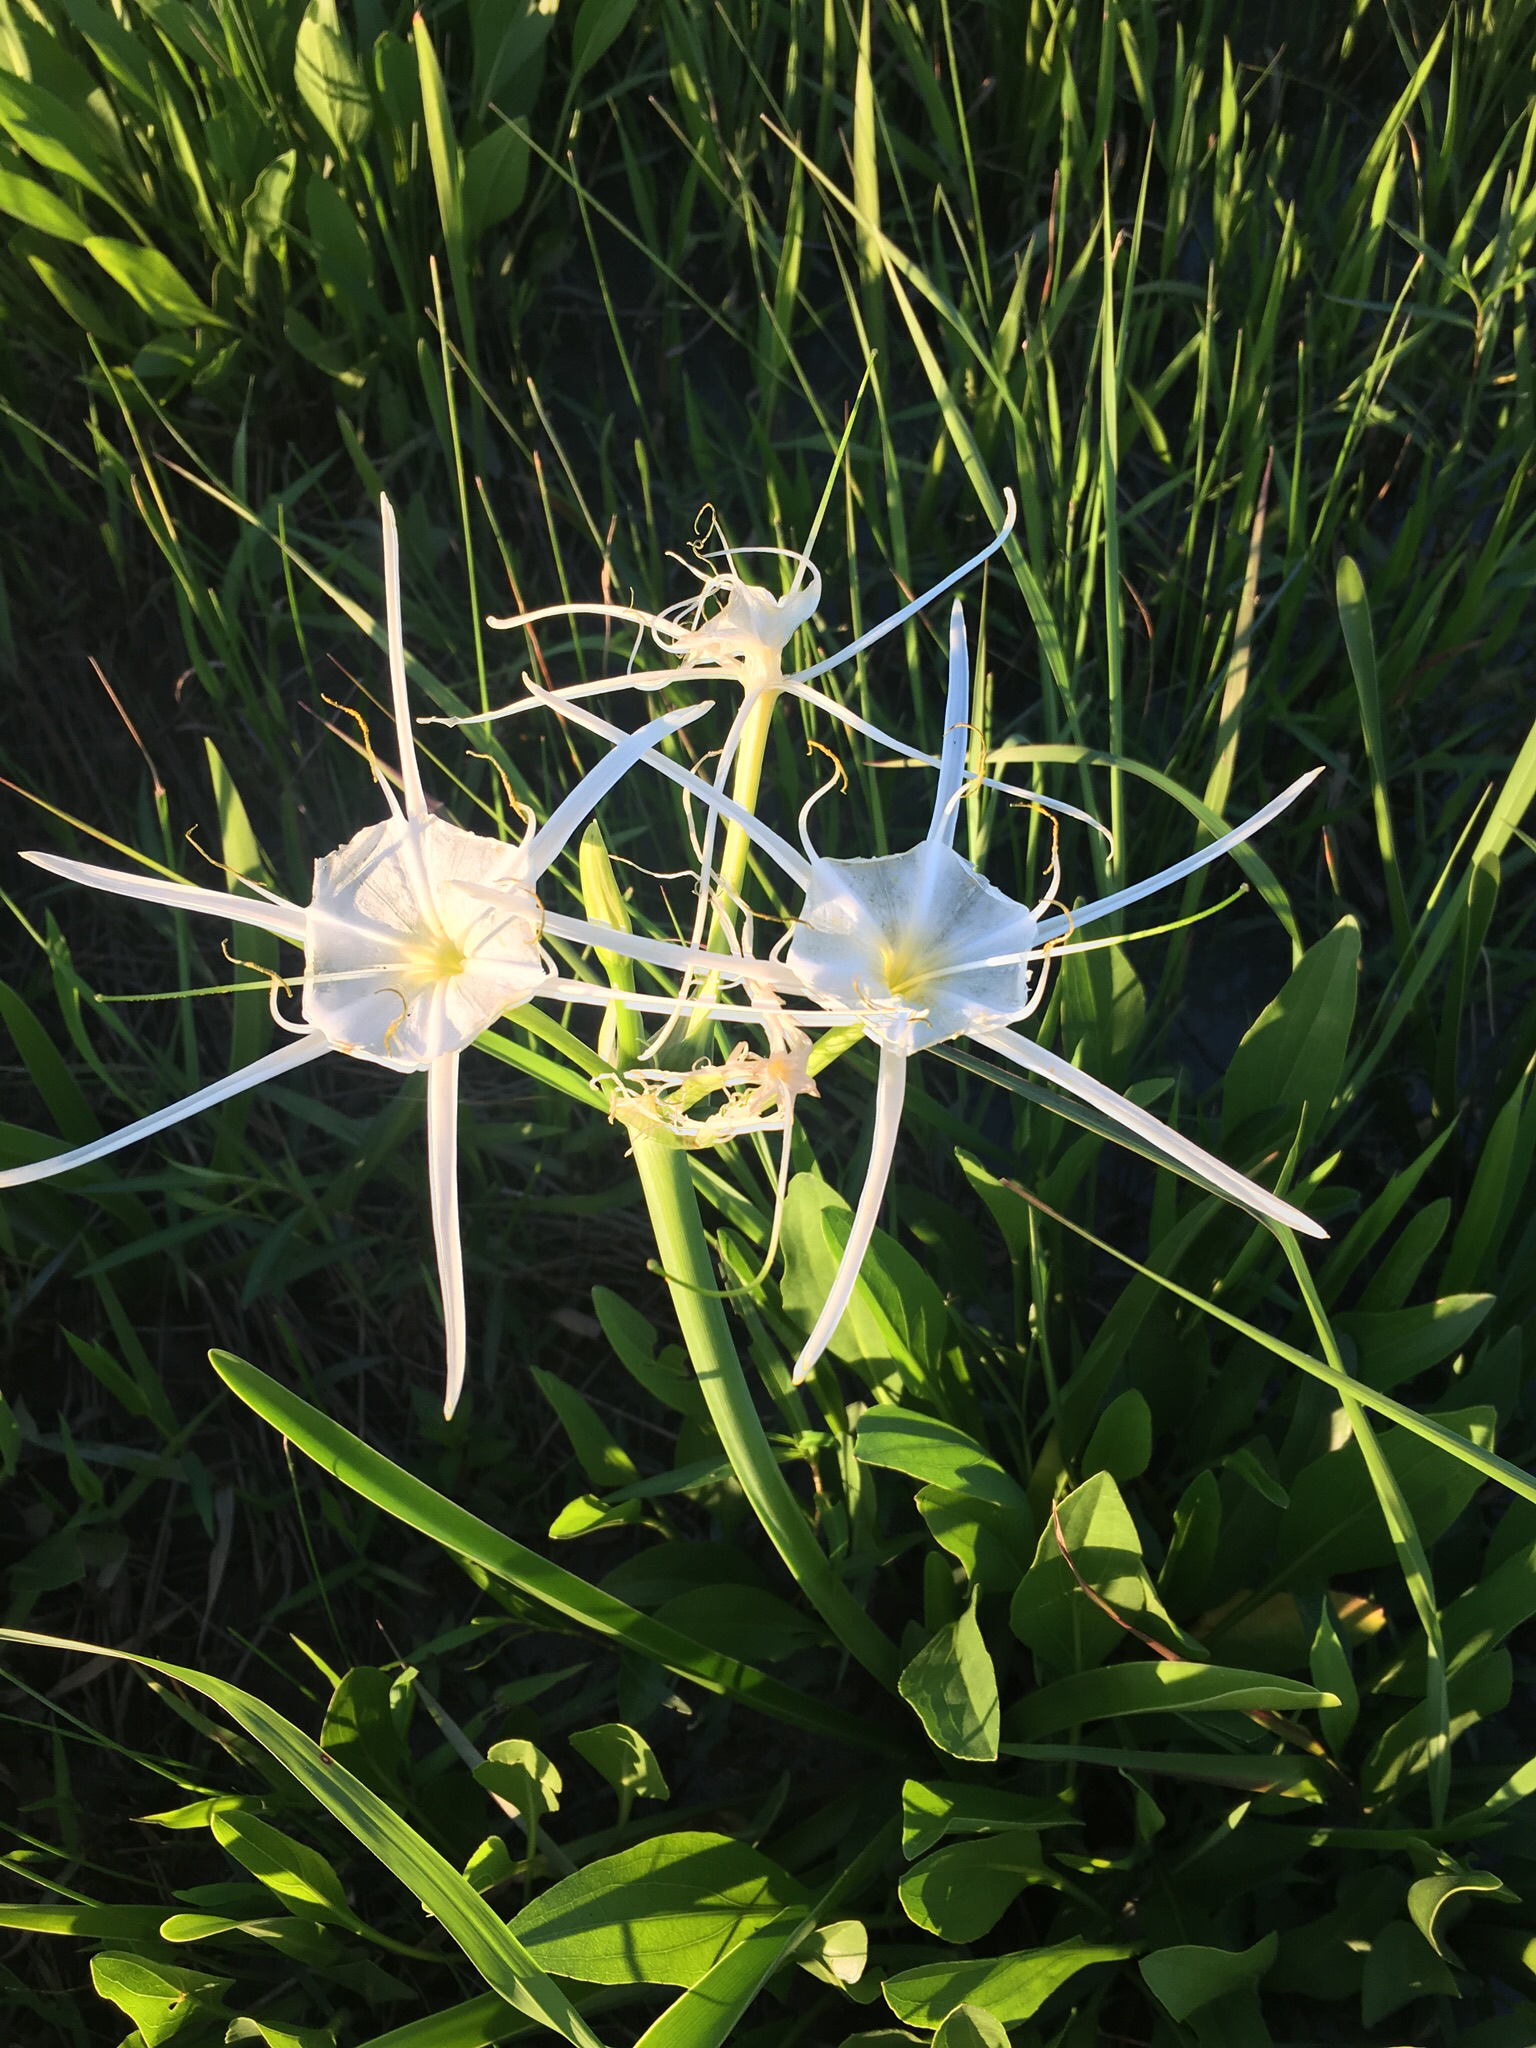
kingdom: Plantae
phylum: Tracheophyta
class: Liliopsida
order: Asparagales
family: Amaryllidaceae
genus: Hymenocallis
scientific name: Hymenocallis liriosme
